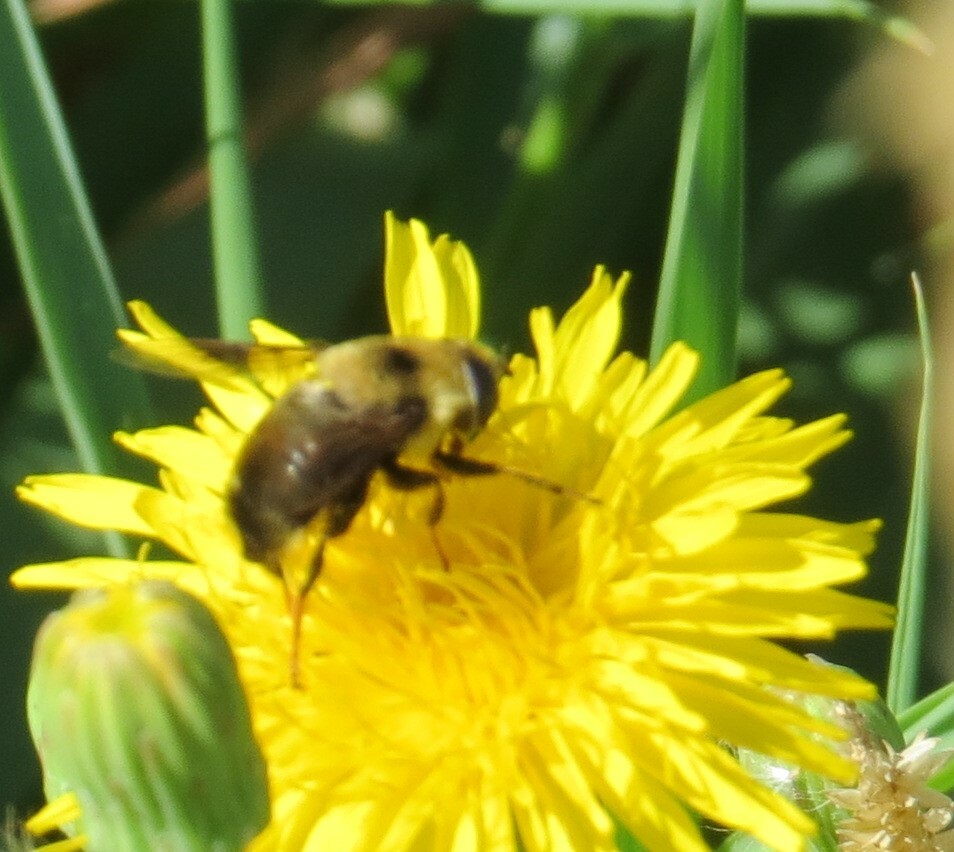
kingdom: Animalia
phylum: Arthropoda
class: Insecta
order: Diptera
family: Syrphidae
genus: Eristalis
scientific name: Eristalis flavipes
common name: Orange-legged drone fly
